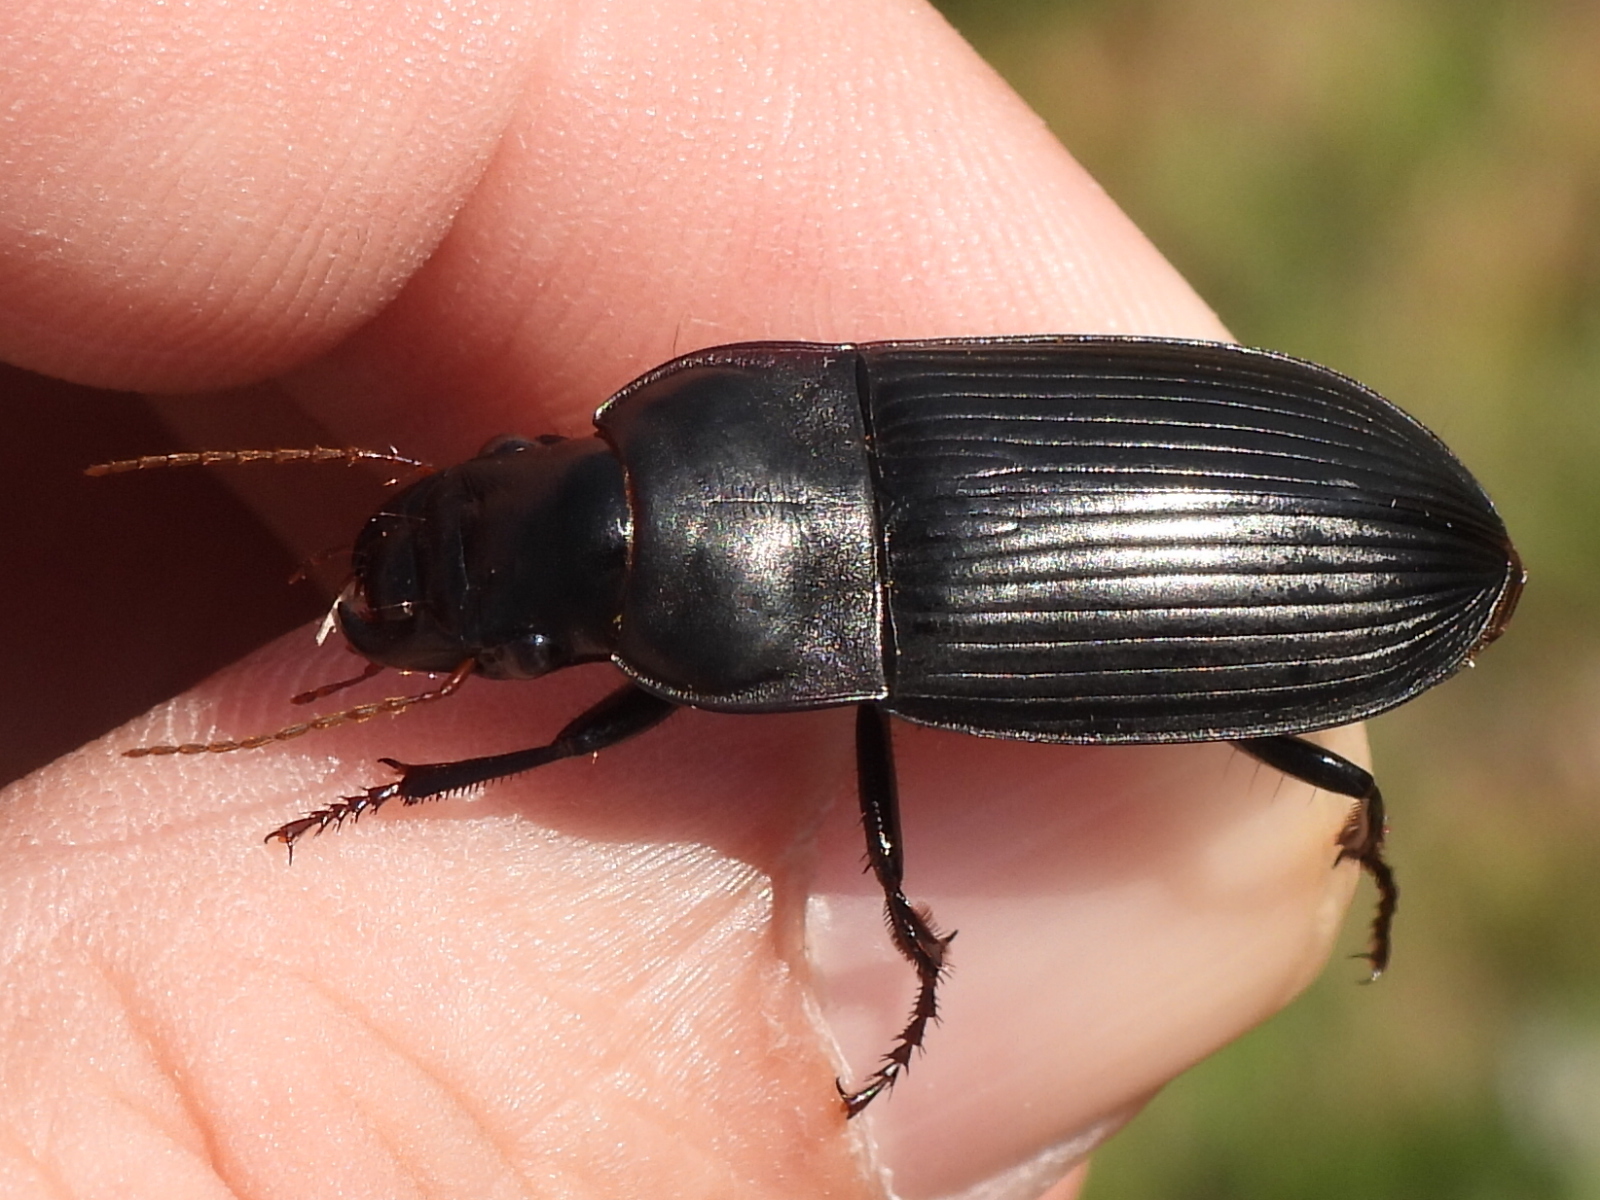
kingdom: Animalia
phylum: Arthropoda
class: Insecta
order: Coleoptera
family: Carabidae
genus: Harpalus
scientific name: Harpalus caliginosus
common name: Murky ground beetle
